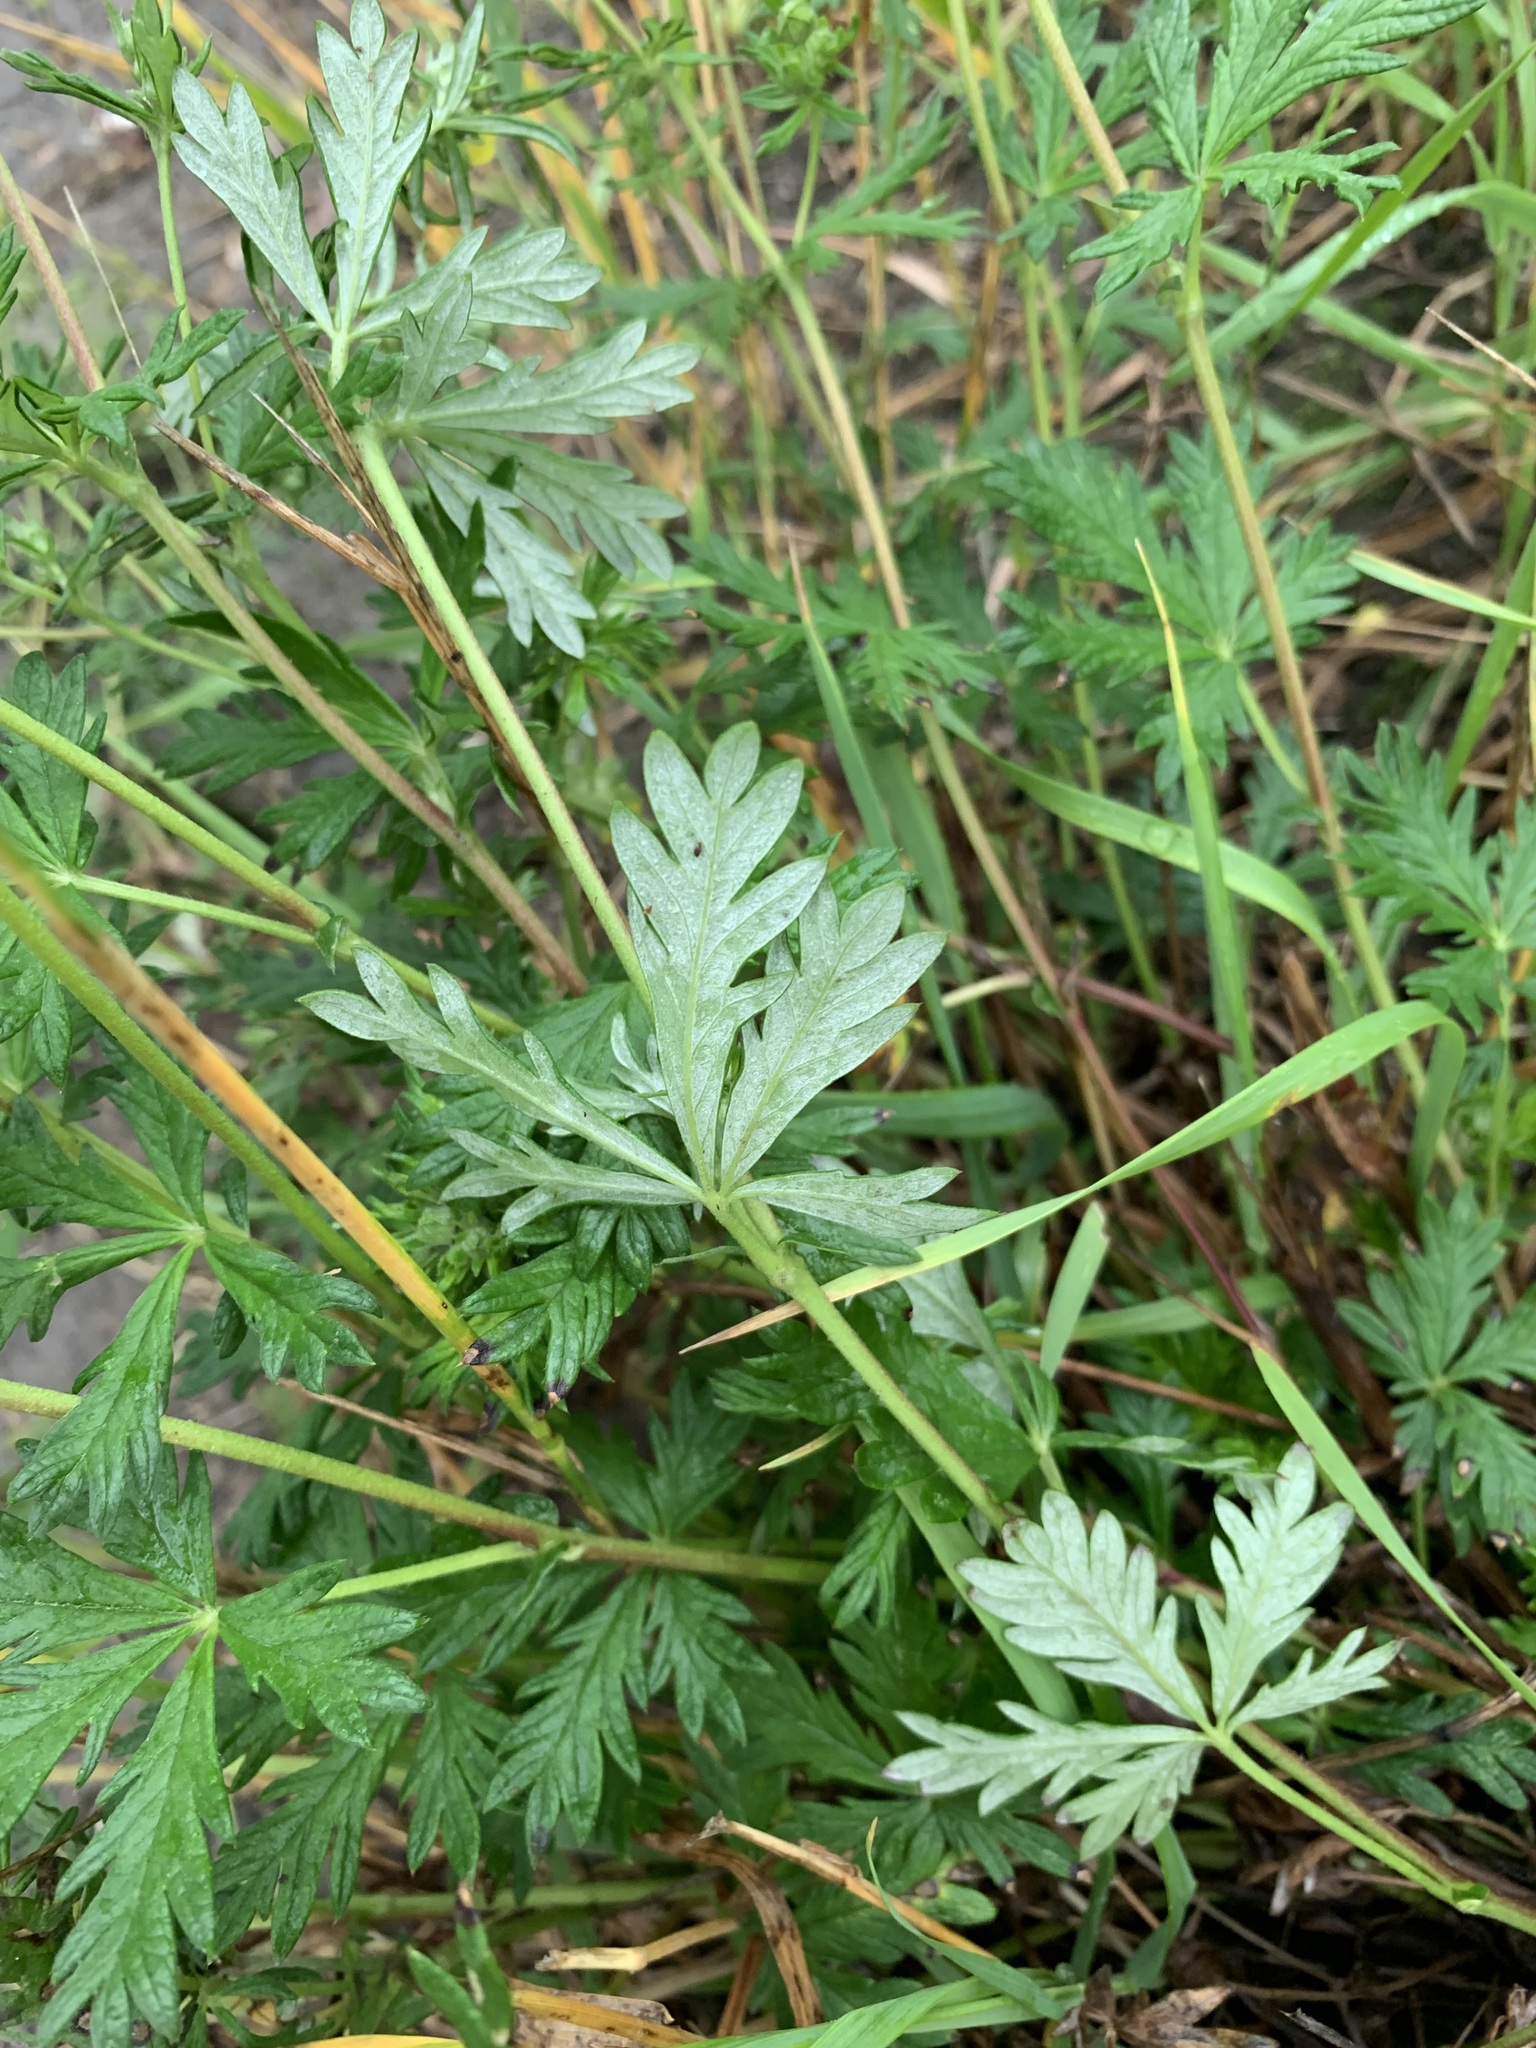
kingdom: Plantae
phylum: Tracheophyta
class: Magnoliopsida
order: Rosales
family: Rosaceae
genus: Potentilla
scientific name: Potentilla argentea
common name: Hoary cinquefoil
